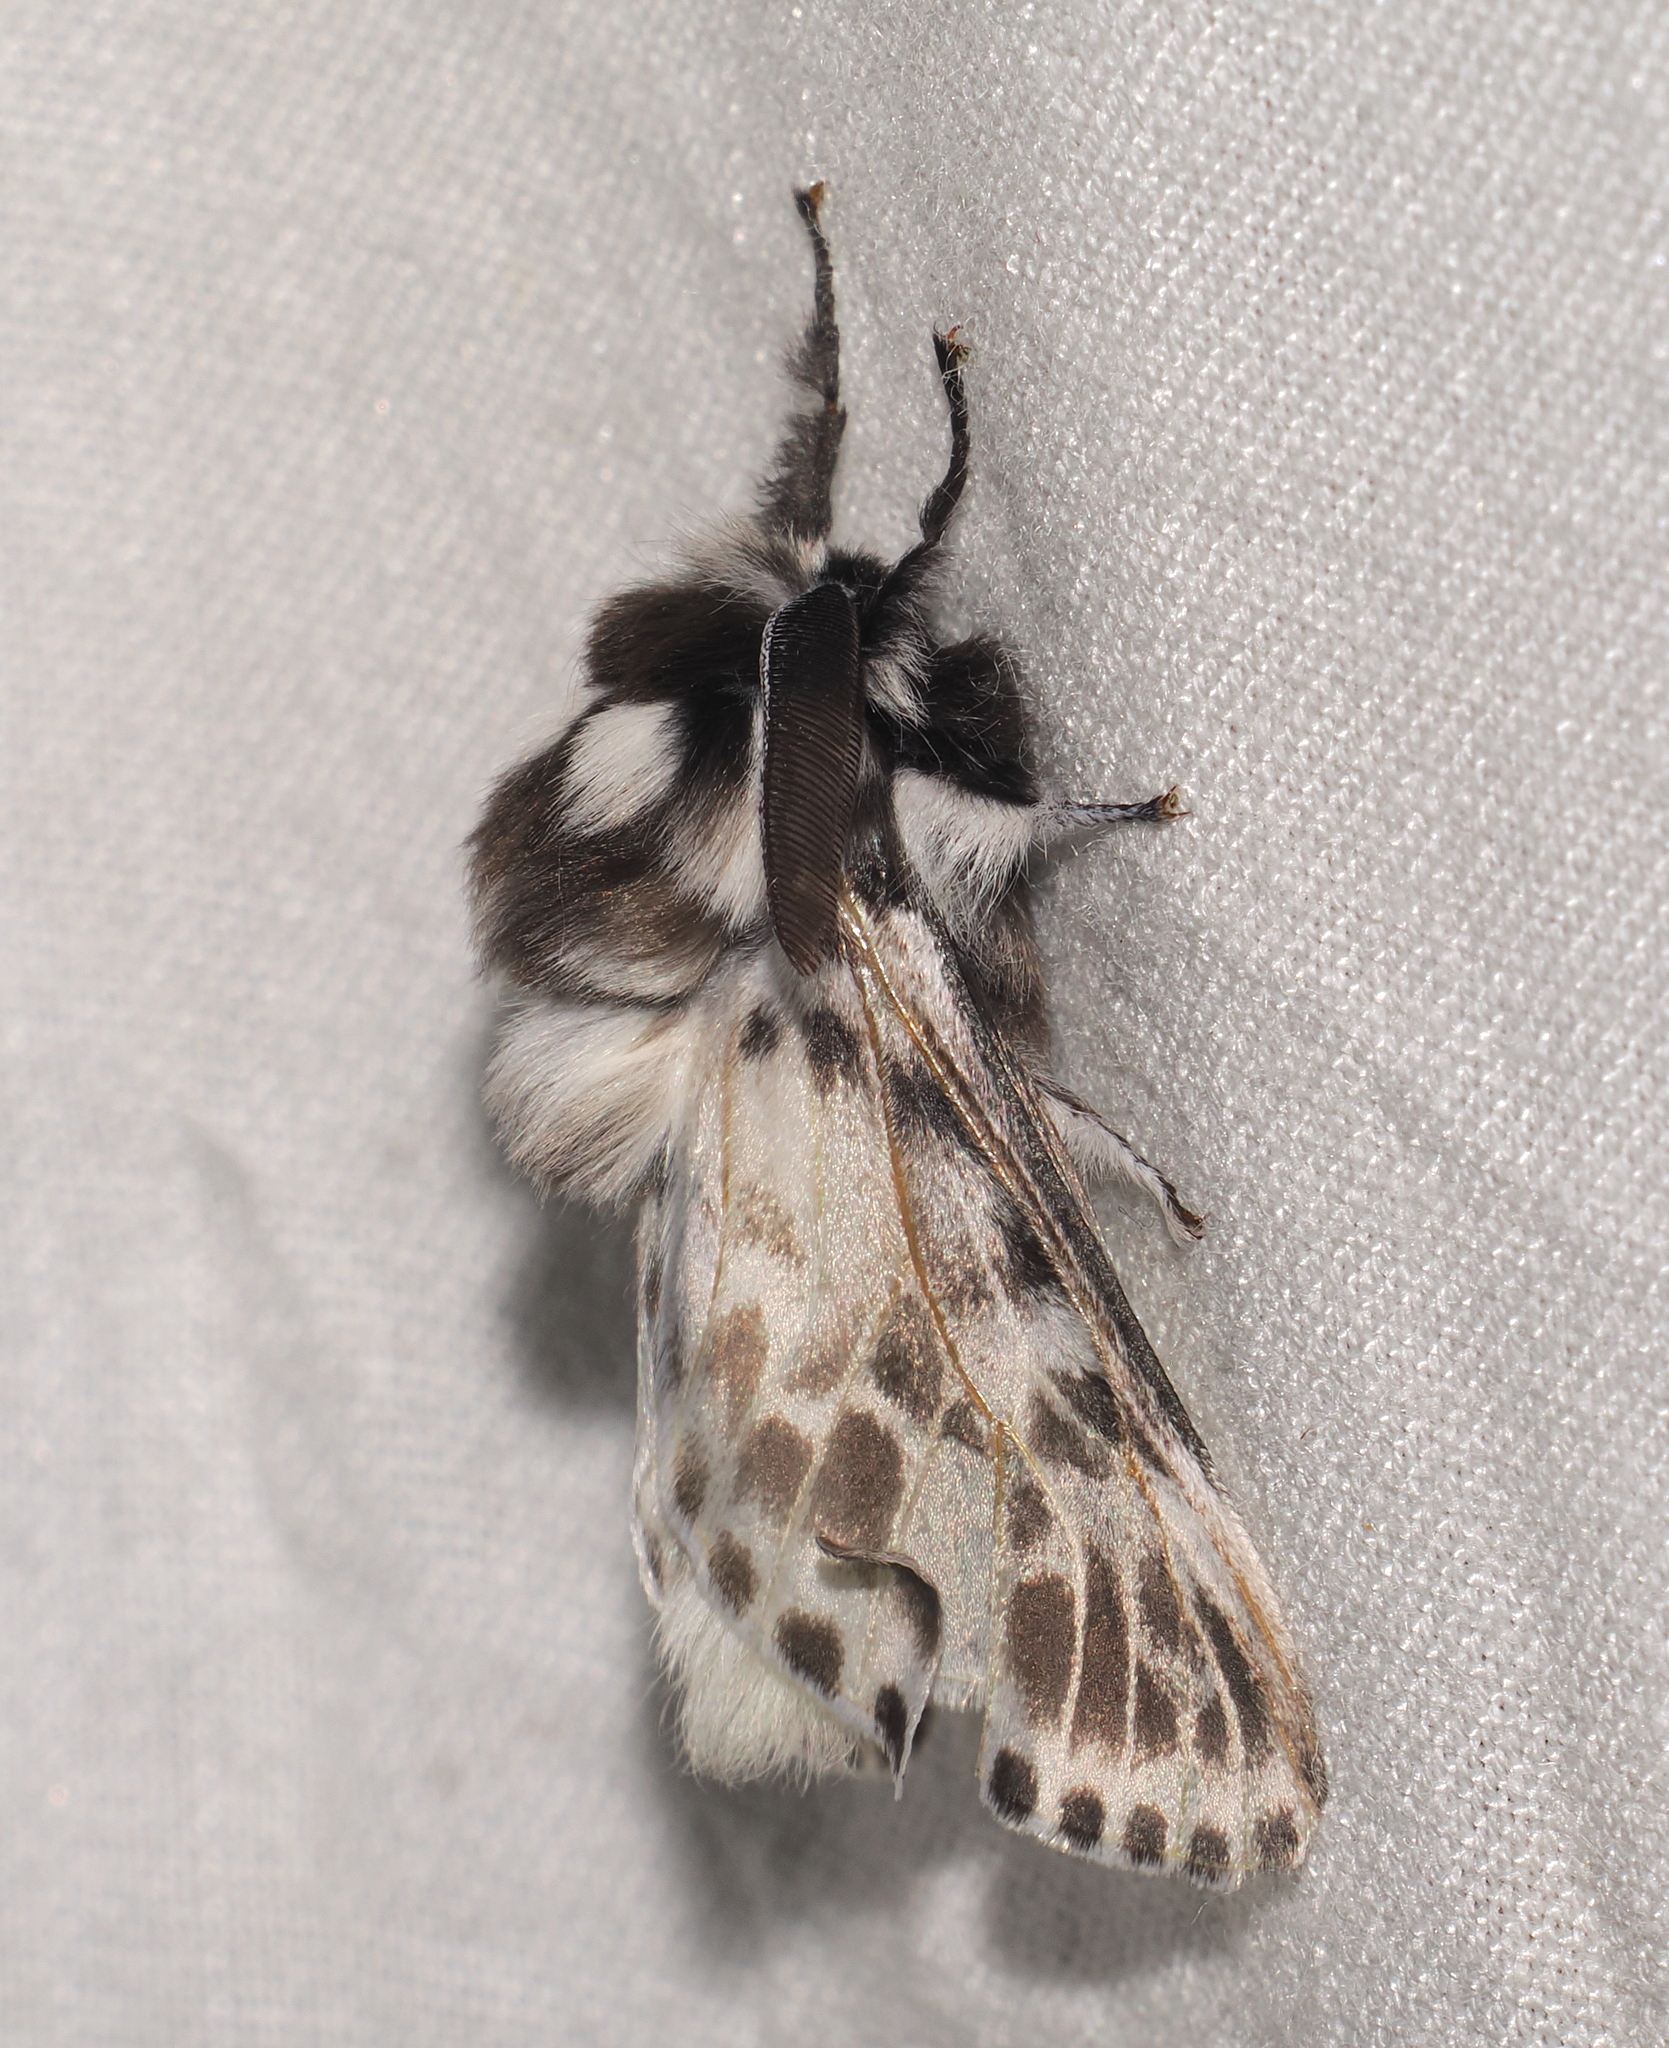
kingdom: Animalia
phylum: Arthropoda
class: Insecta
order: Lepidoptera
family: Megalopygidae
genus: Podalia
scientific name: Podalia pedacioides
